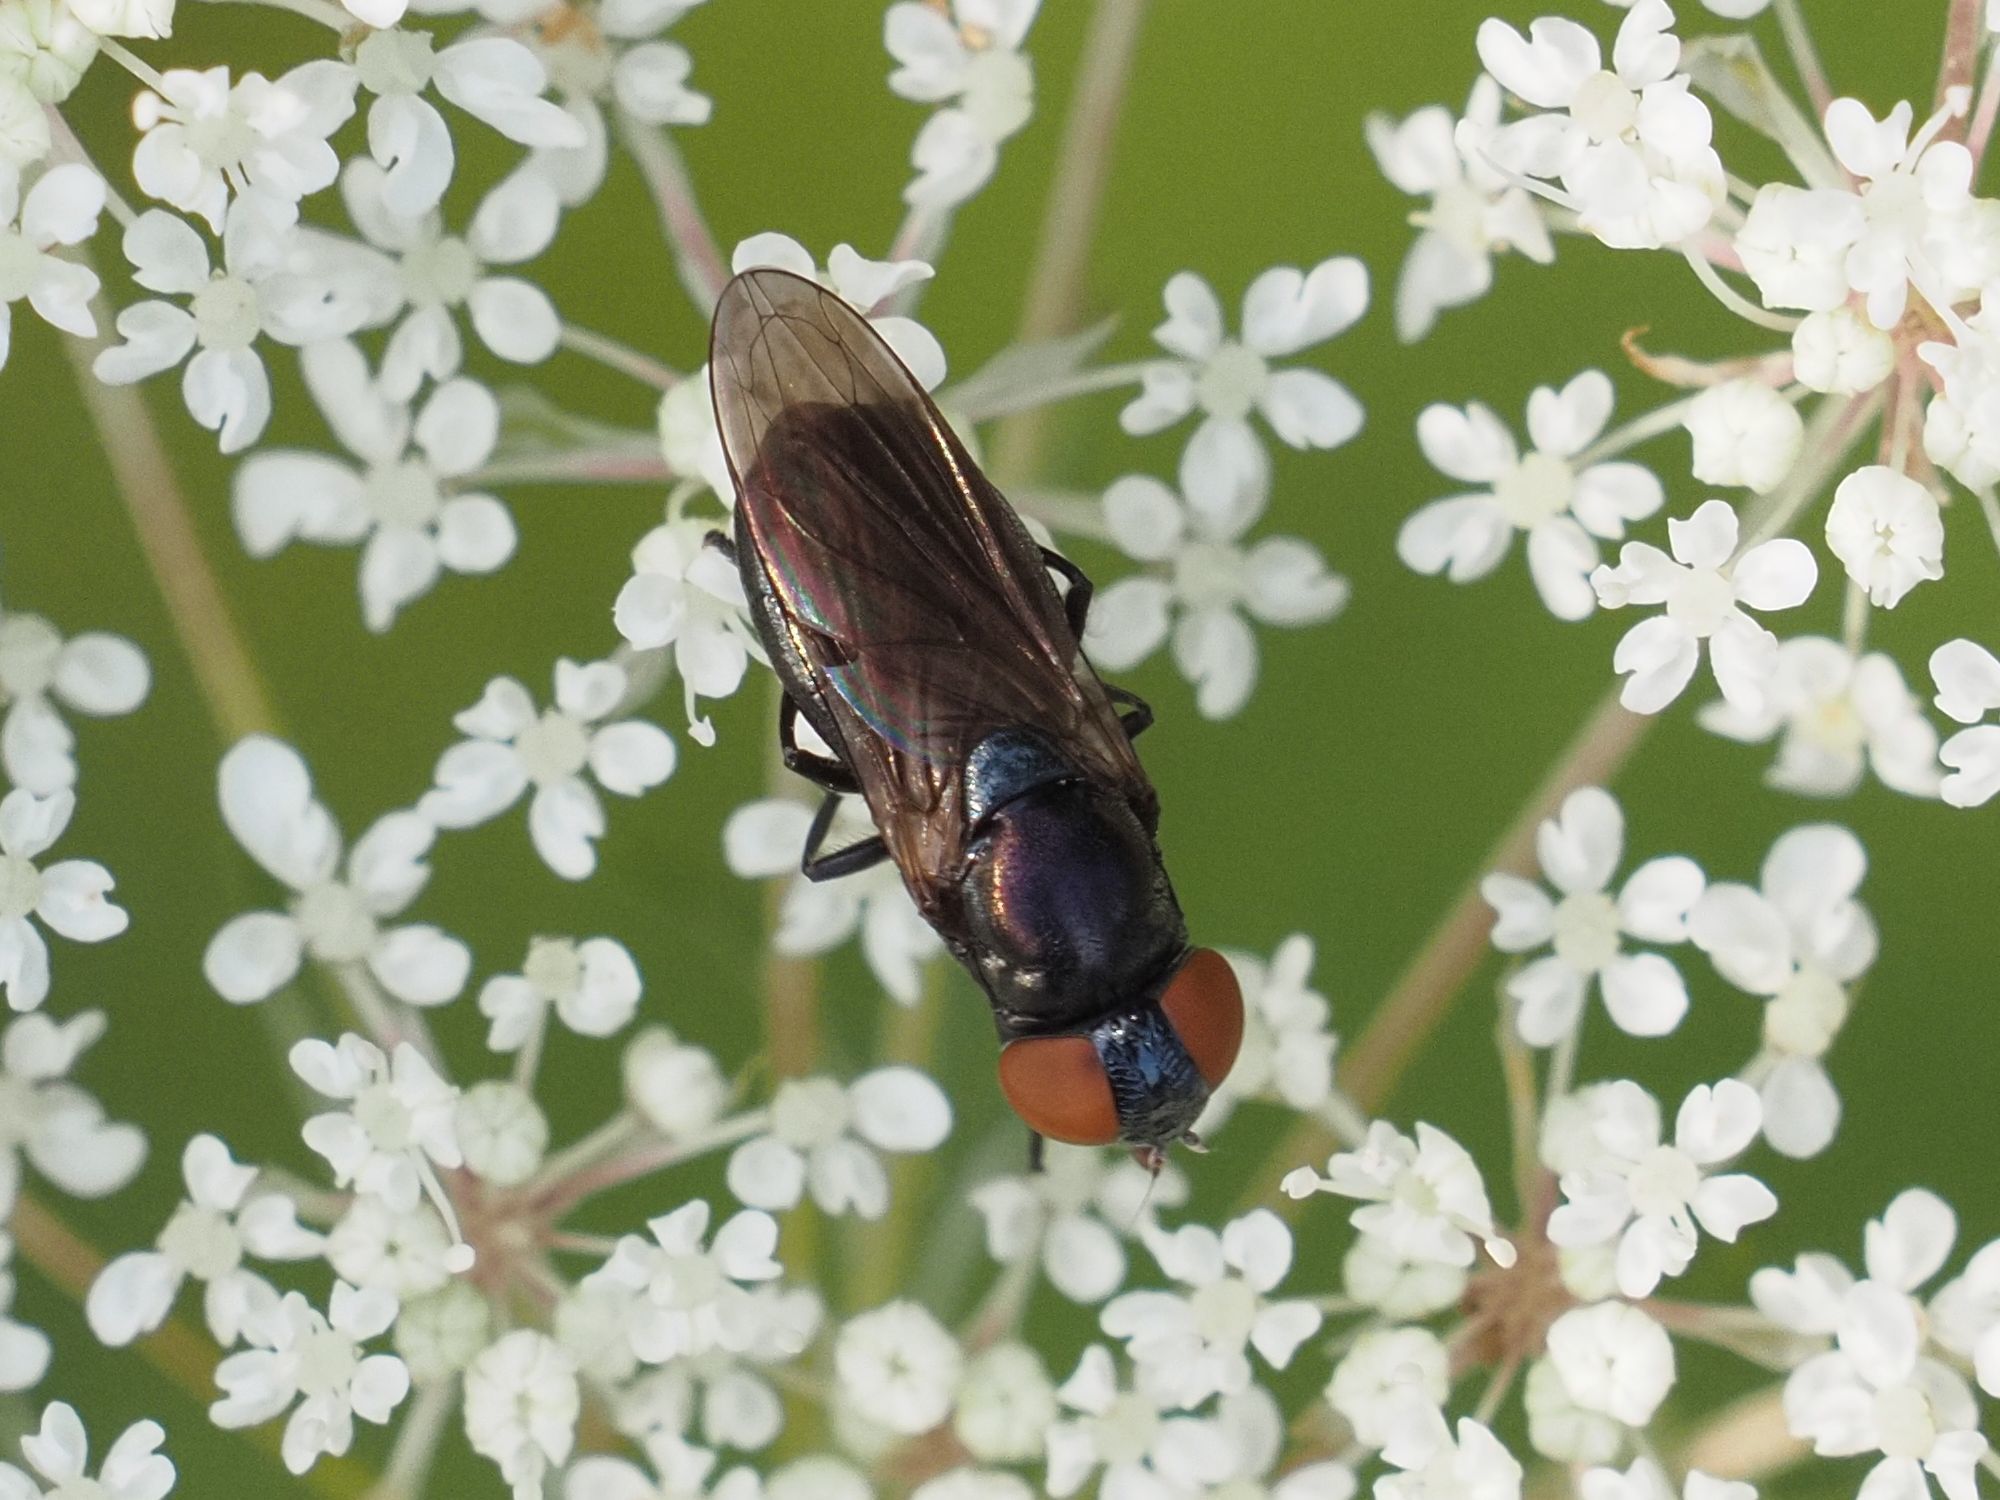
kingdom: Animalia
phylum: Arthropoda
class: Insecta
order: Diptera
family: Syrphidae
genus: Chrysogaster
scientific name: Chrysogaster solstitialis
